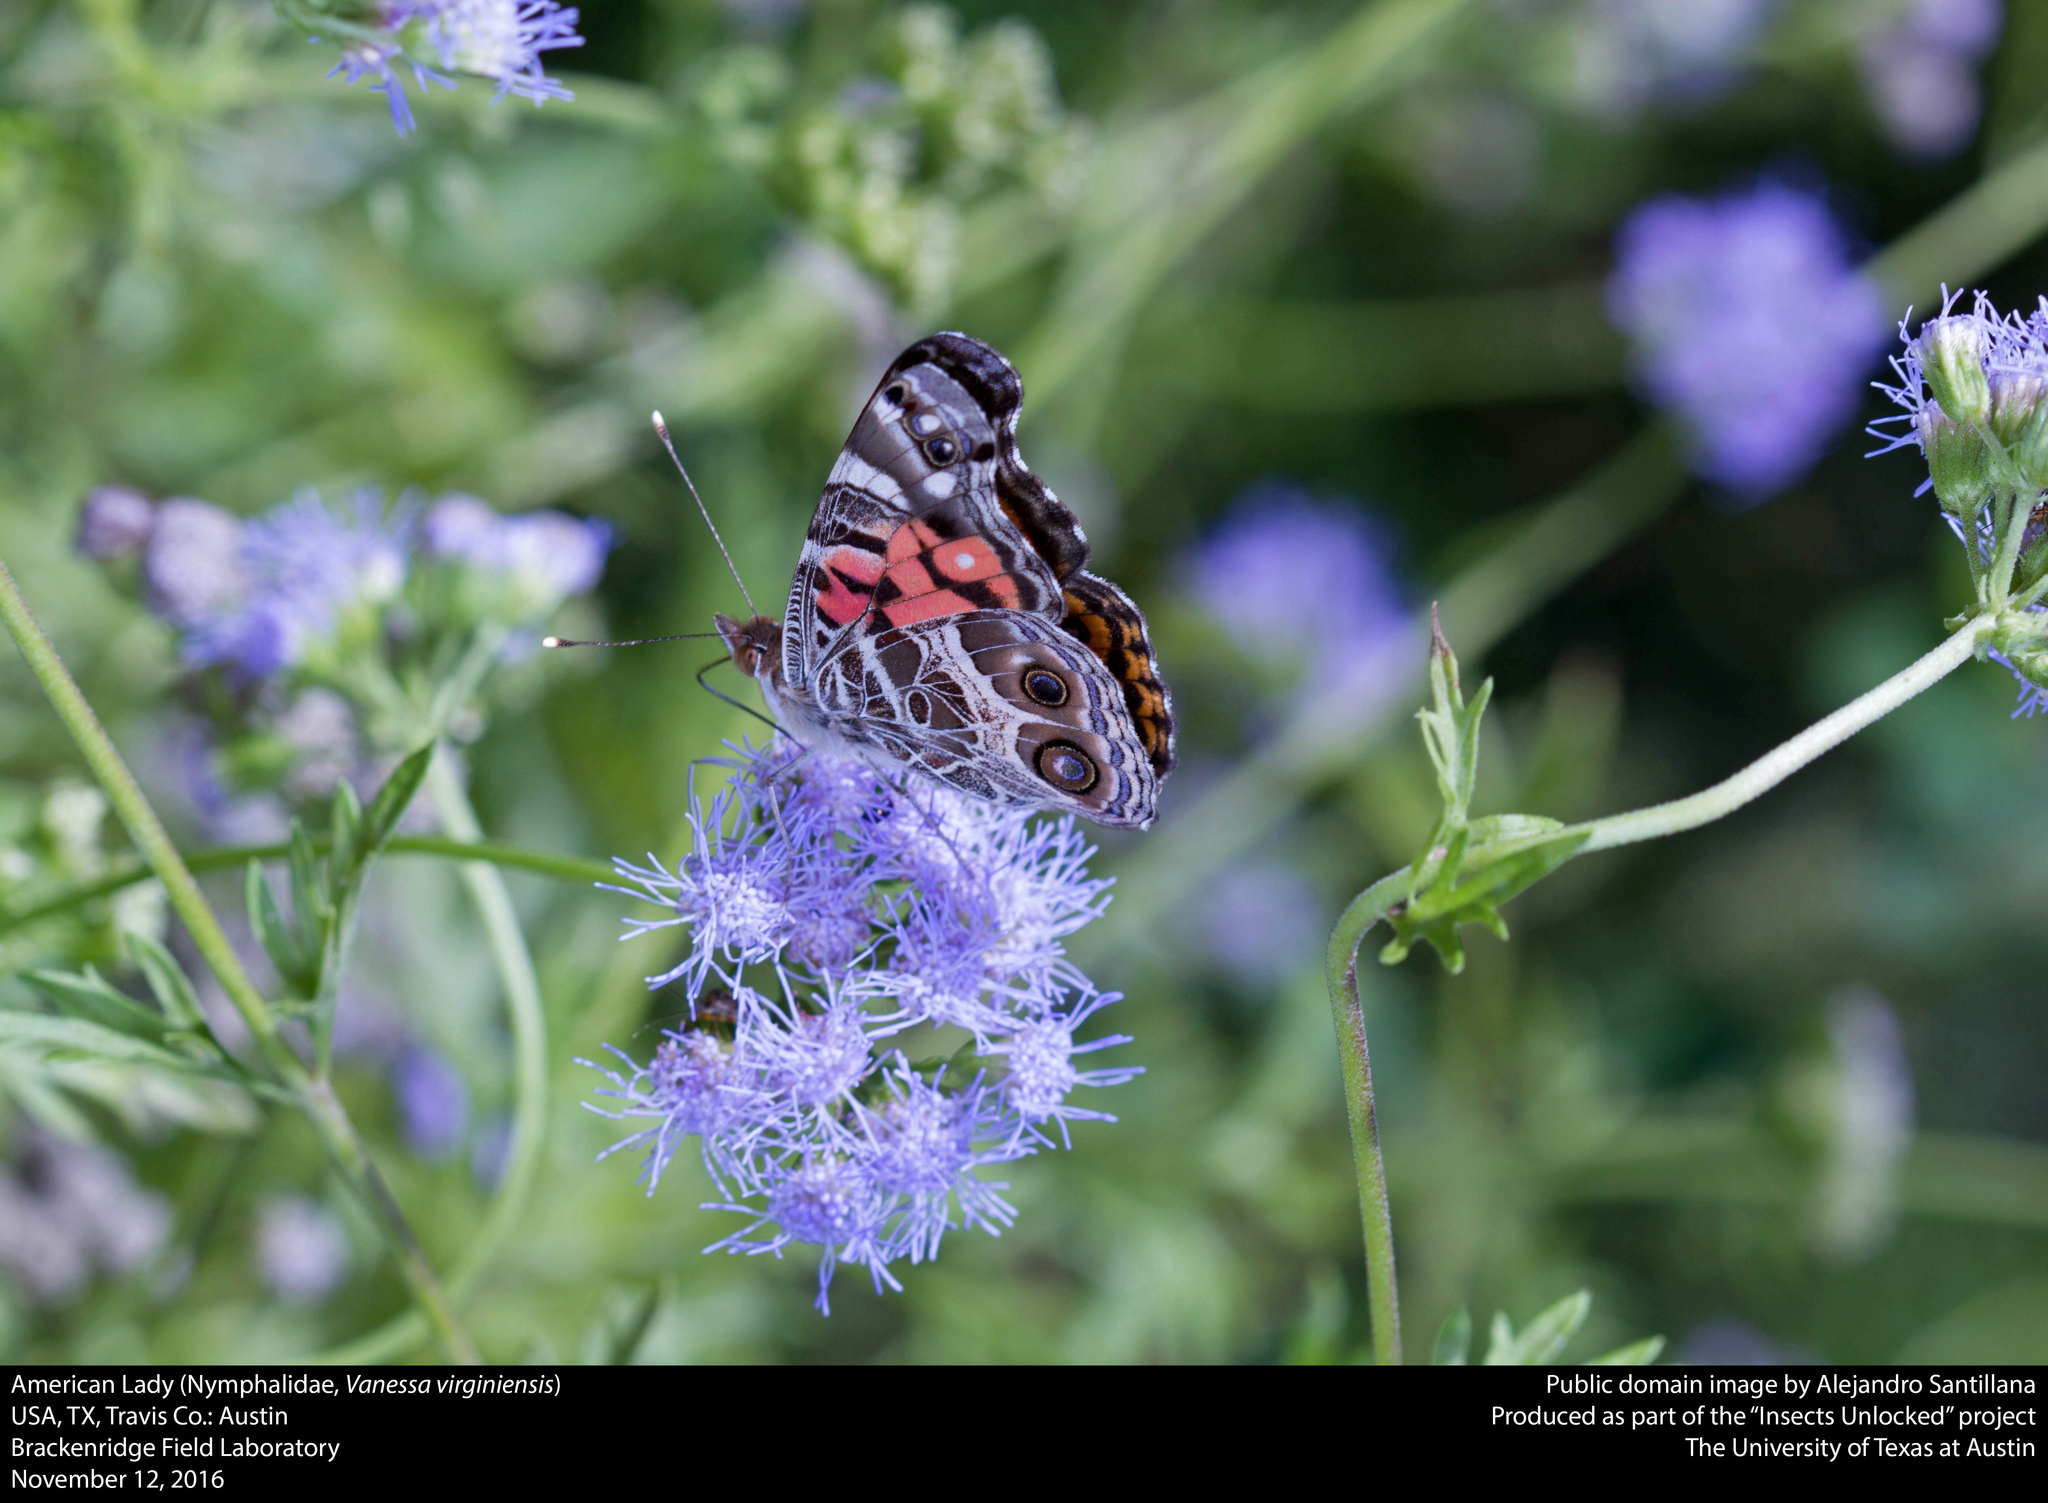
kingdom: Animalia
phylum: Arthropoda
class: Insecta
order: Lepidoptera
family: Nymphalidae
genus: Vanessa
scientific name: Vanessa virginiensis
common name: American lady
